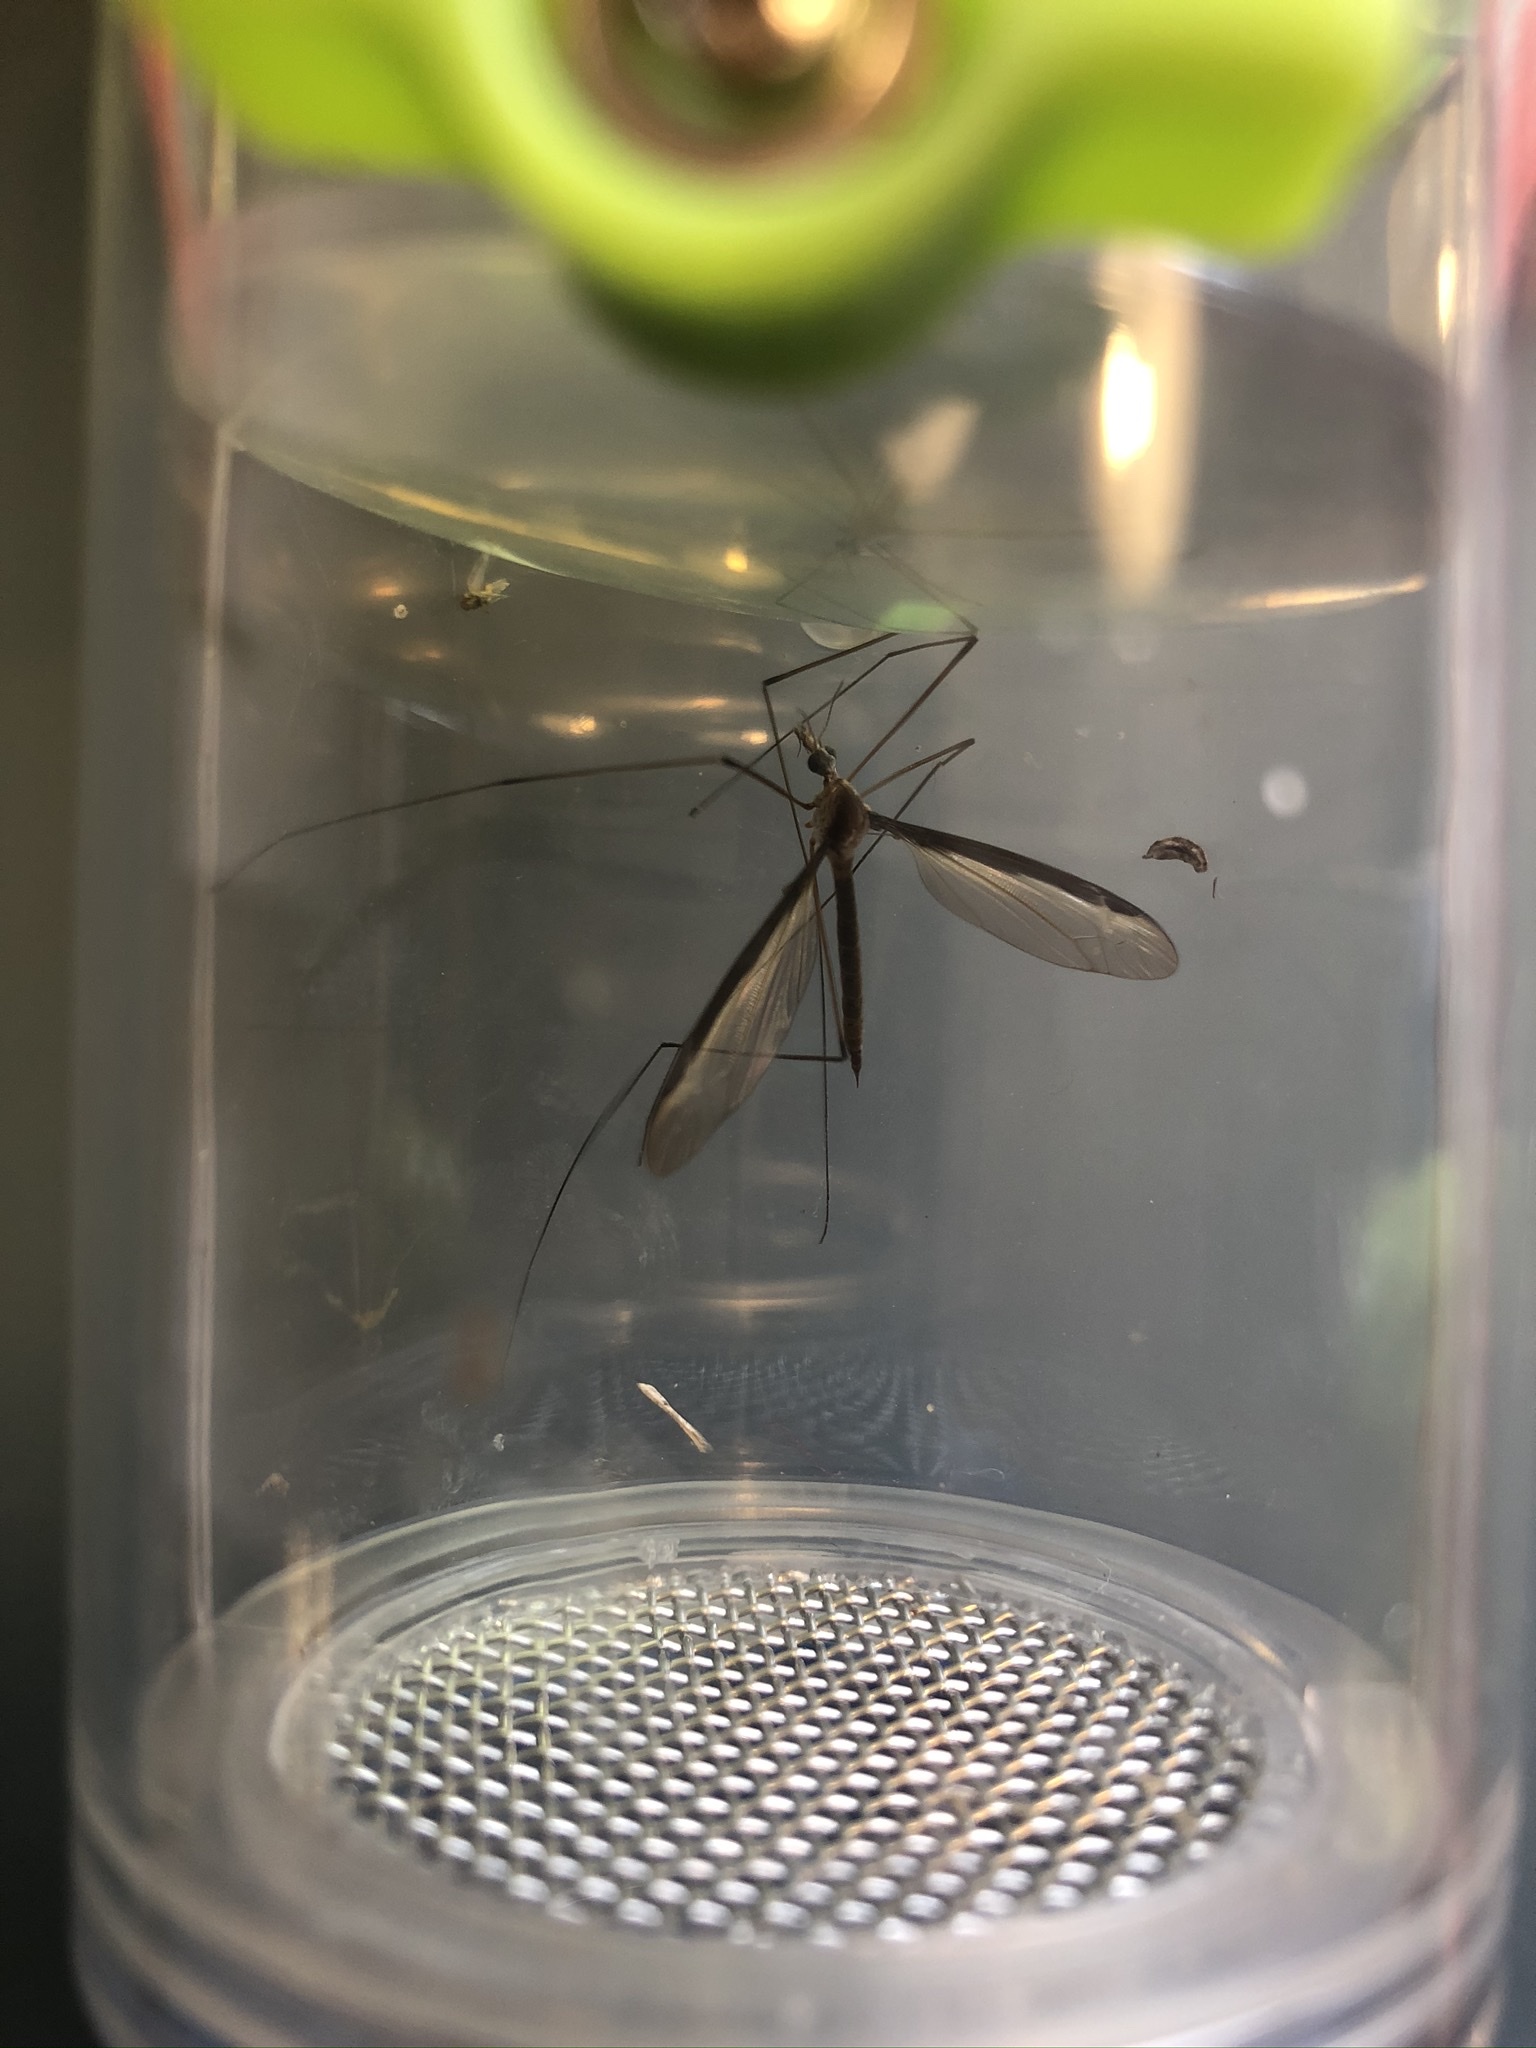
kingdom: Animalia
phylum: Arthropoda
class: Insecta
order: Diptera
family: Tipulidae
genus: Tipula
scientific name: Tipula sayi
